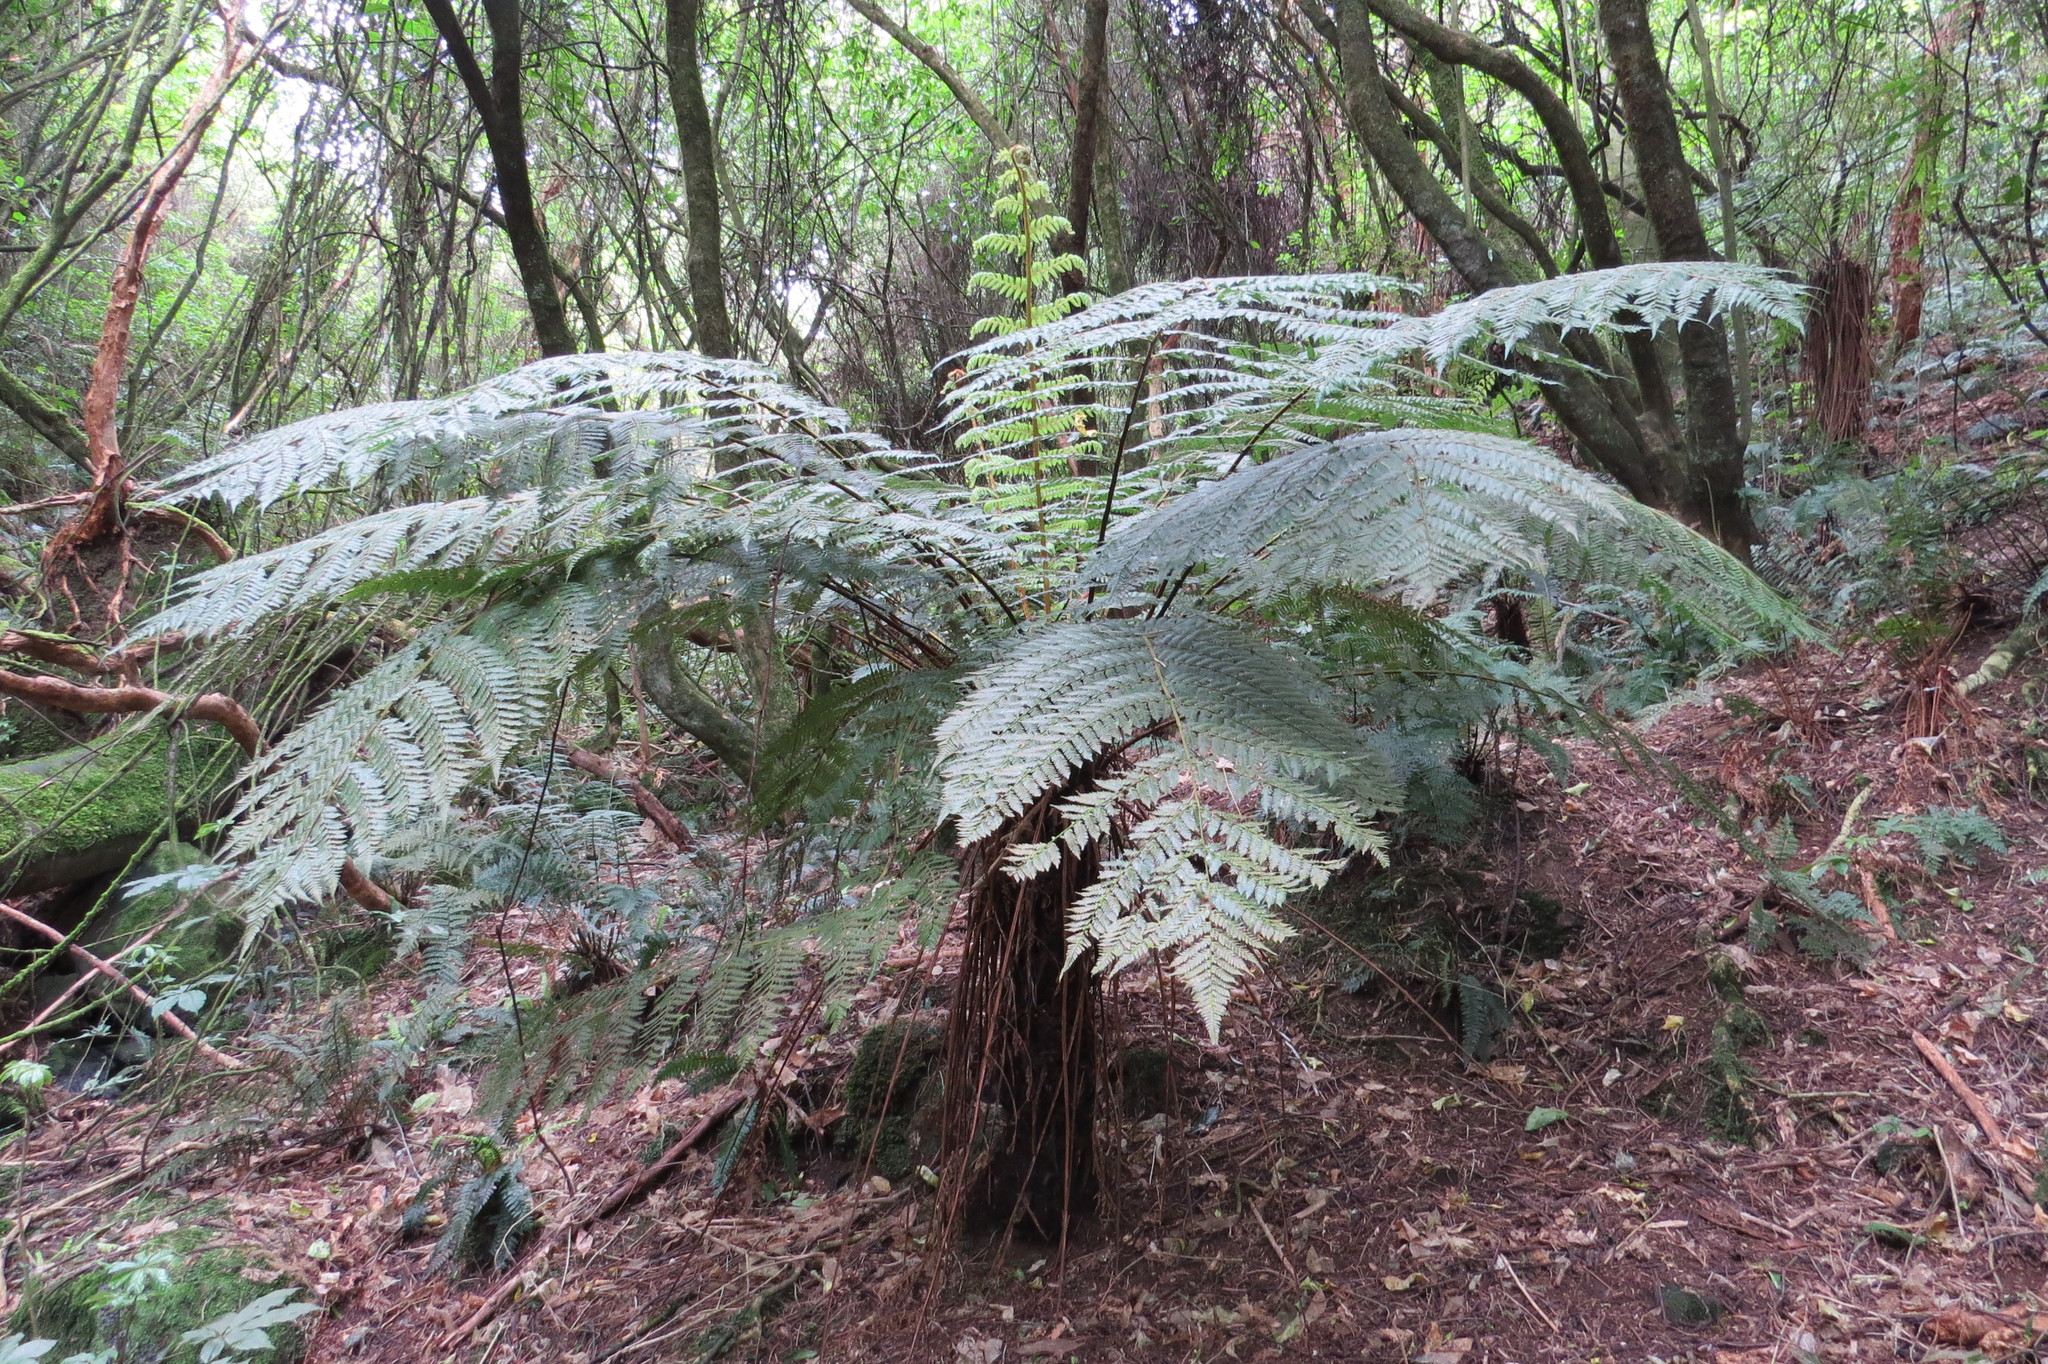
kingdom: Plantae
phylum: Tracheophyta
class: Polypodiopsida
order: Cyatheales
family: Cyatheaceae
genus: Alsophila
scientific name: Alsophila smithii
